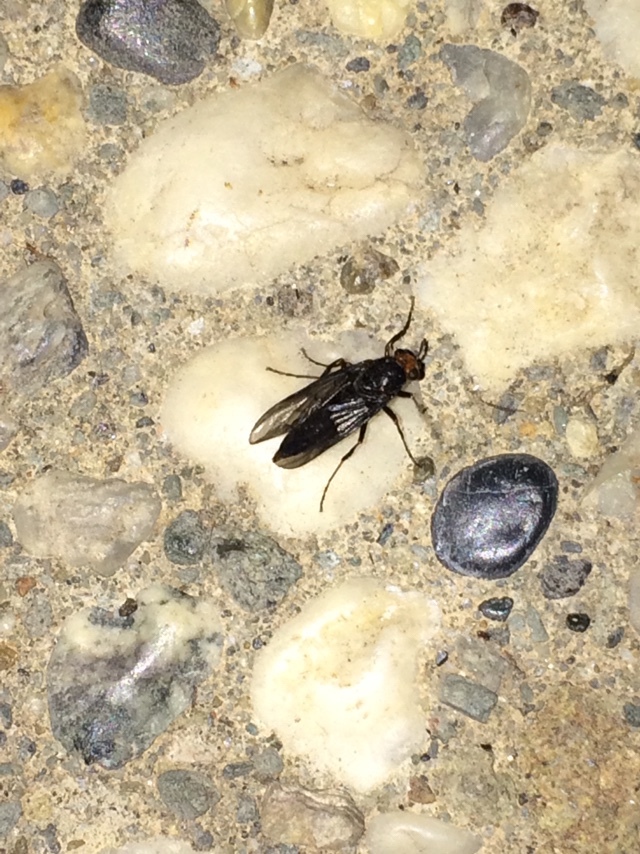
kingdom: Animalia
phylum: Arthropoda
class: Insecta
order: Diptera
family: Stratiomyidae
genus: Inopus
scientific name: Inopus rubriceps
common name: Soldier fly
